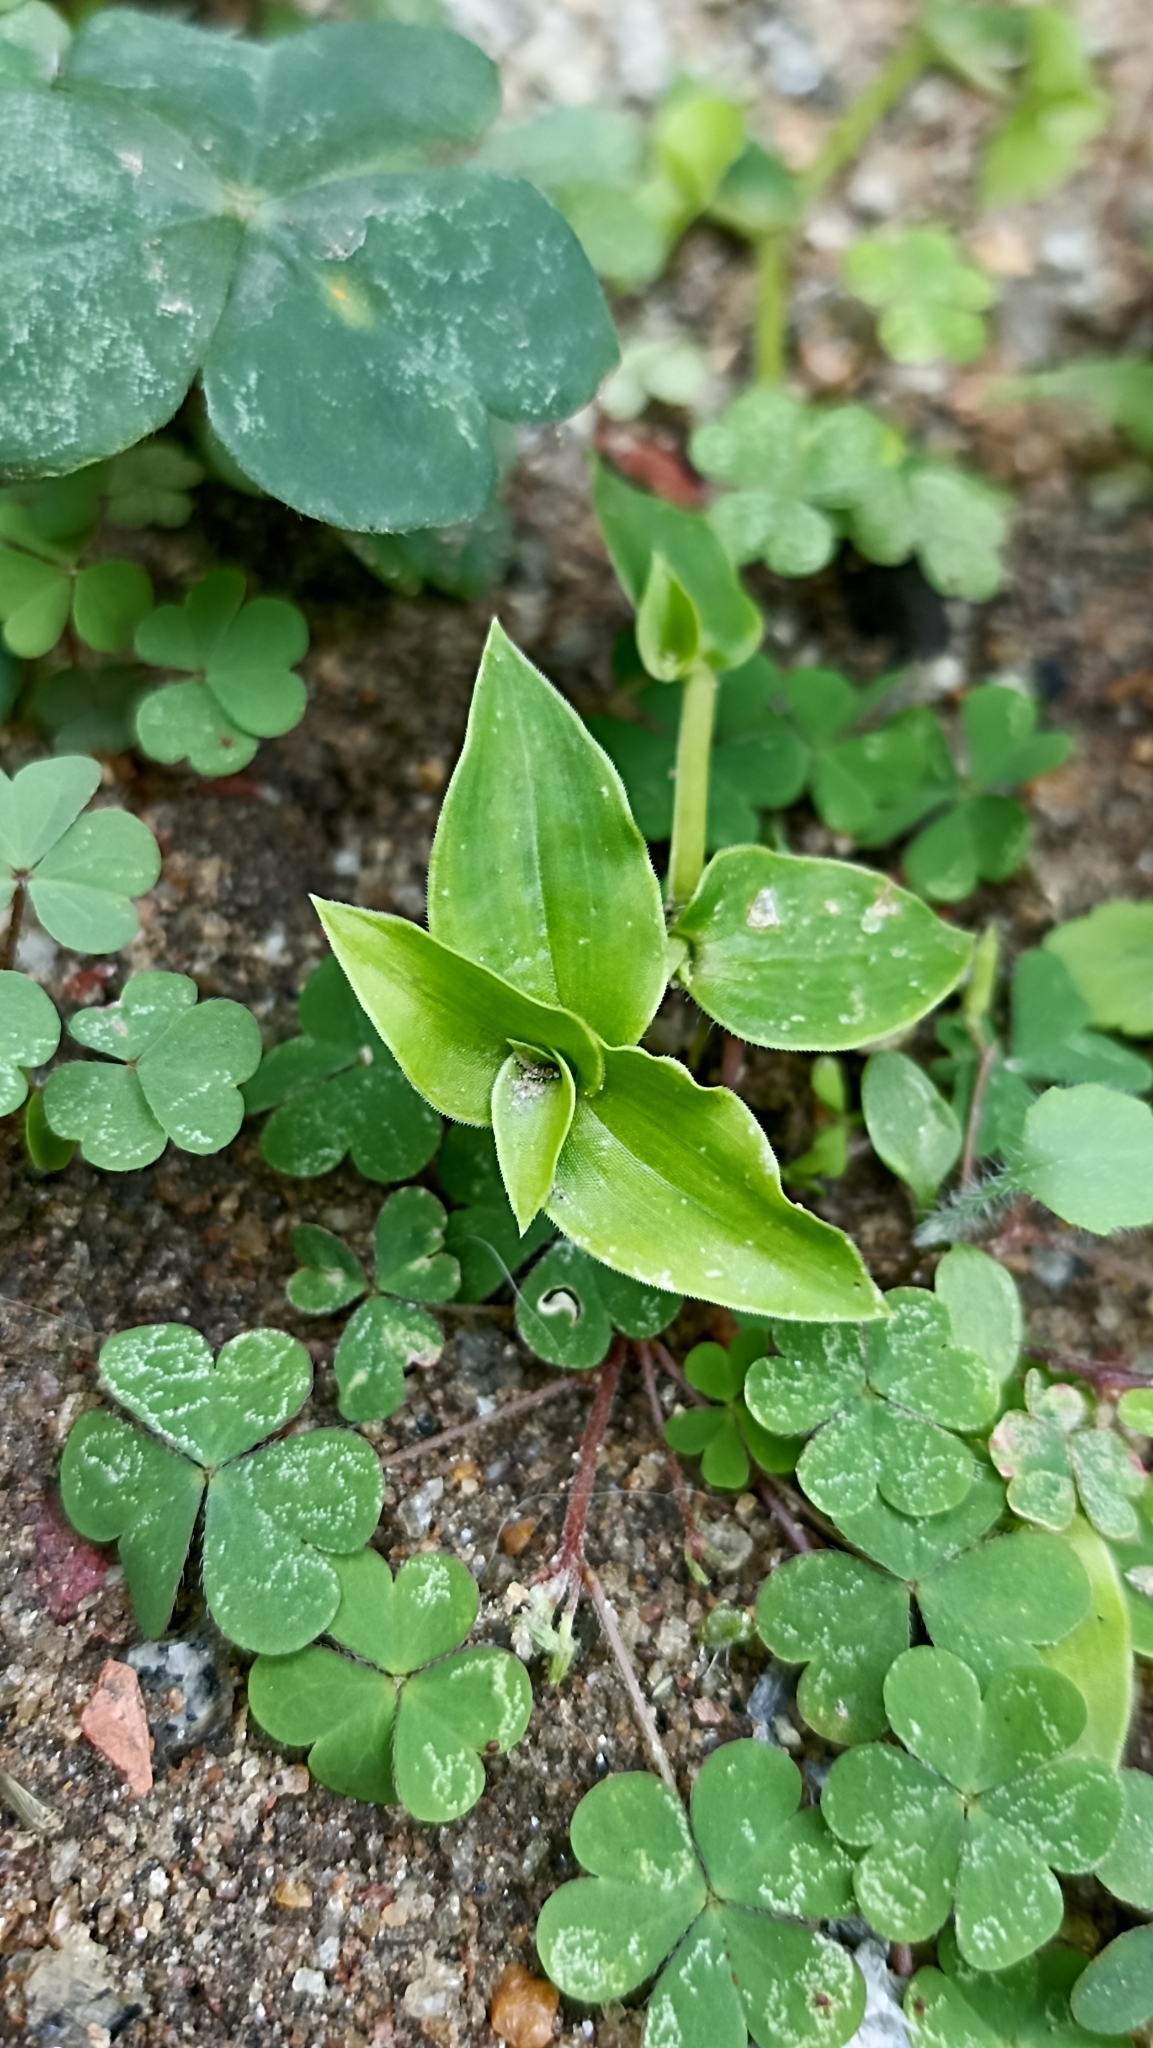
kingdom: Plantae
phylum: Tracheophyta
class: Liliopsida
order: Commelinales
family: Commelinaceae
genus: Tradescantia
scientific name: Tradescantia fluminensis
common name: Wandering-jew
